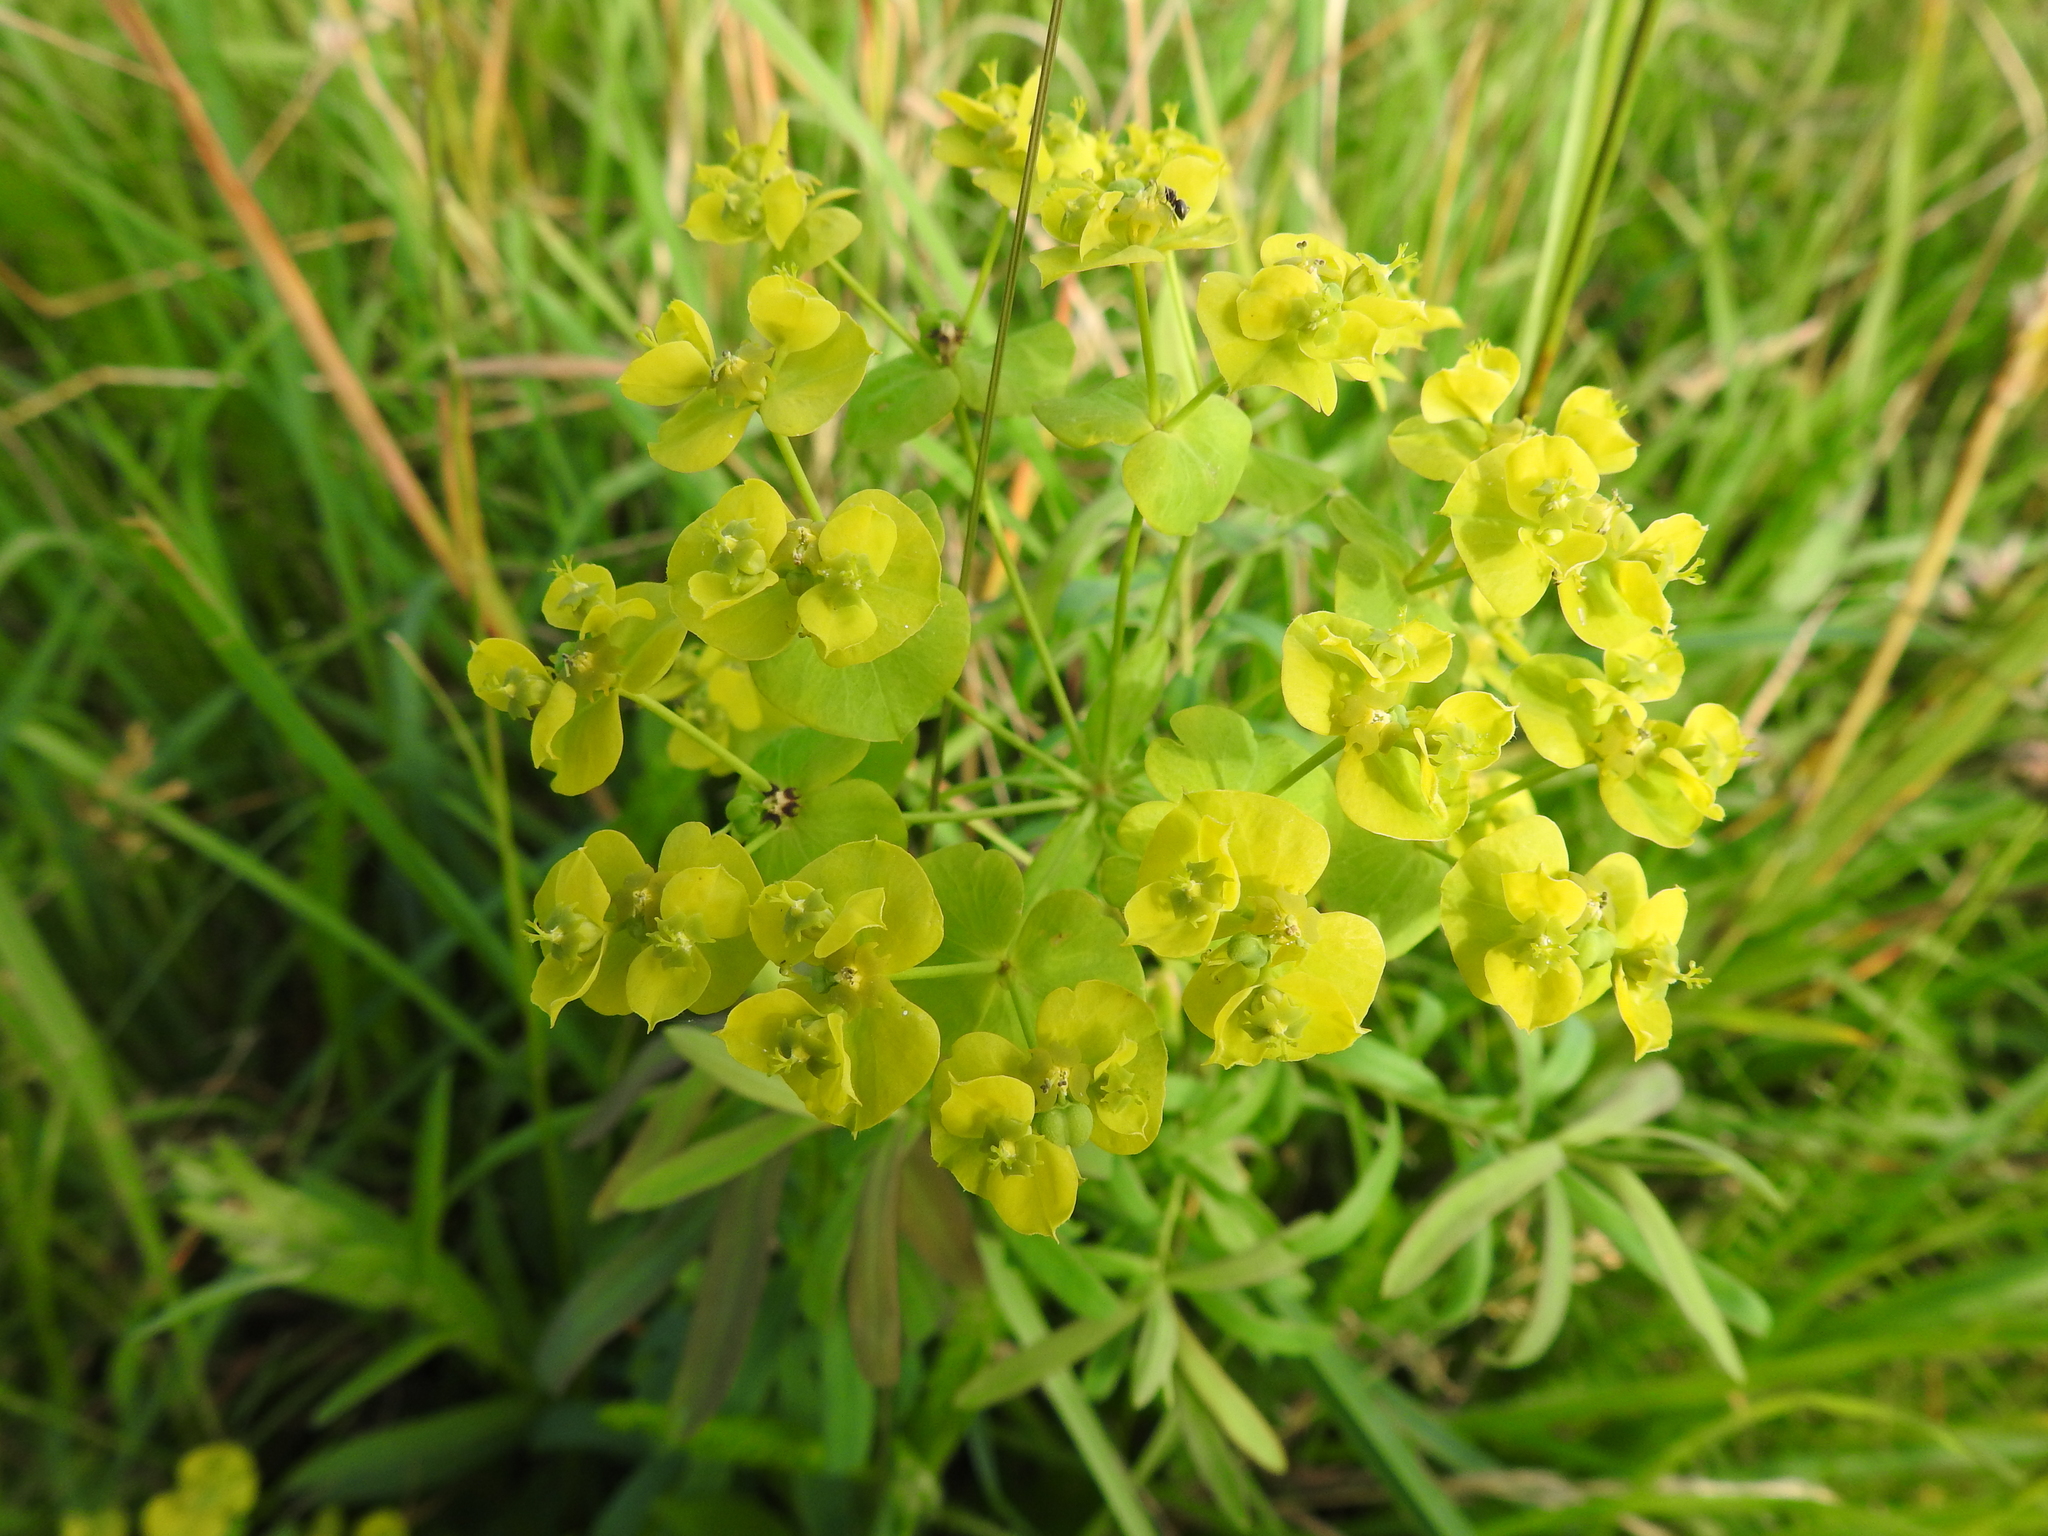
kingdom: Plantae
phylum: Tracheophyta
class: Magnoliopsida
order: Malpighiales
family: Euphorbiaceae
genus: Euphorbia
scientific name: Euphorbia esula
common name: Leafy spurge
